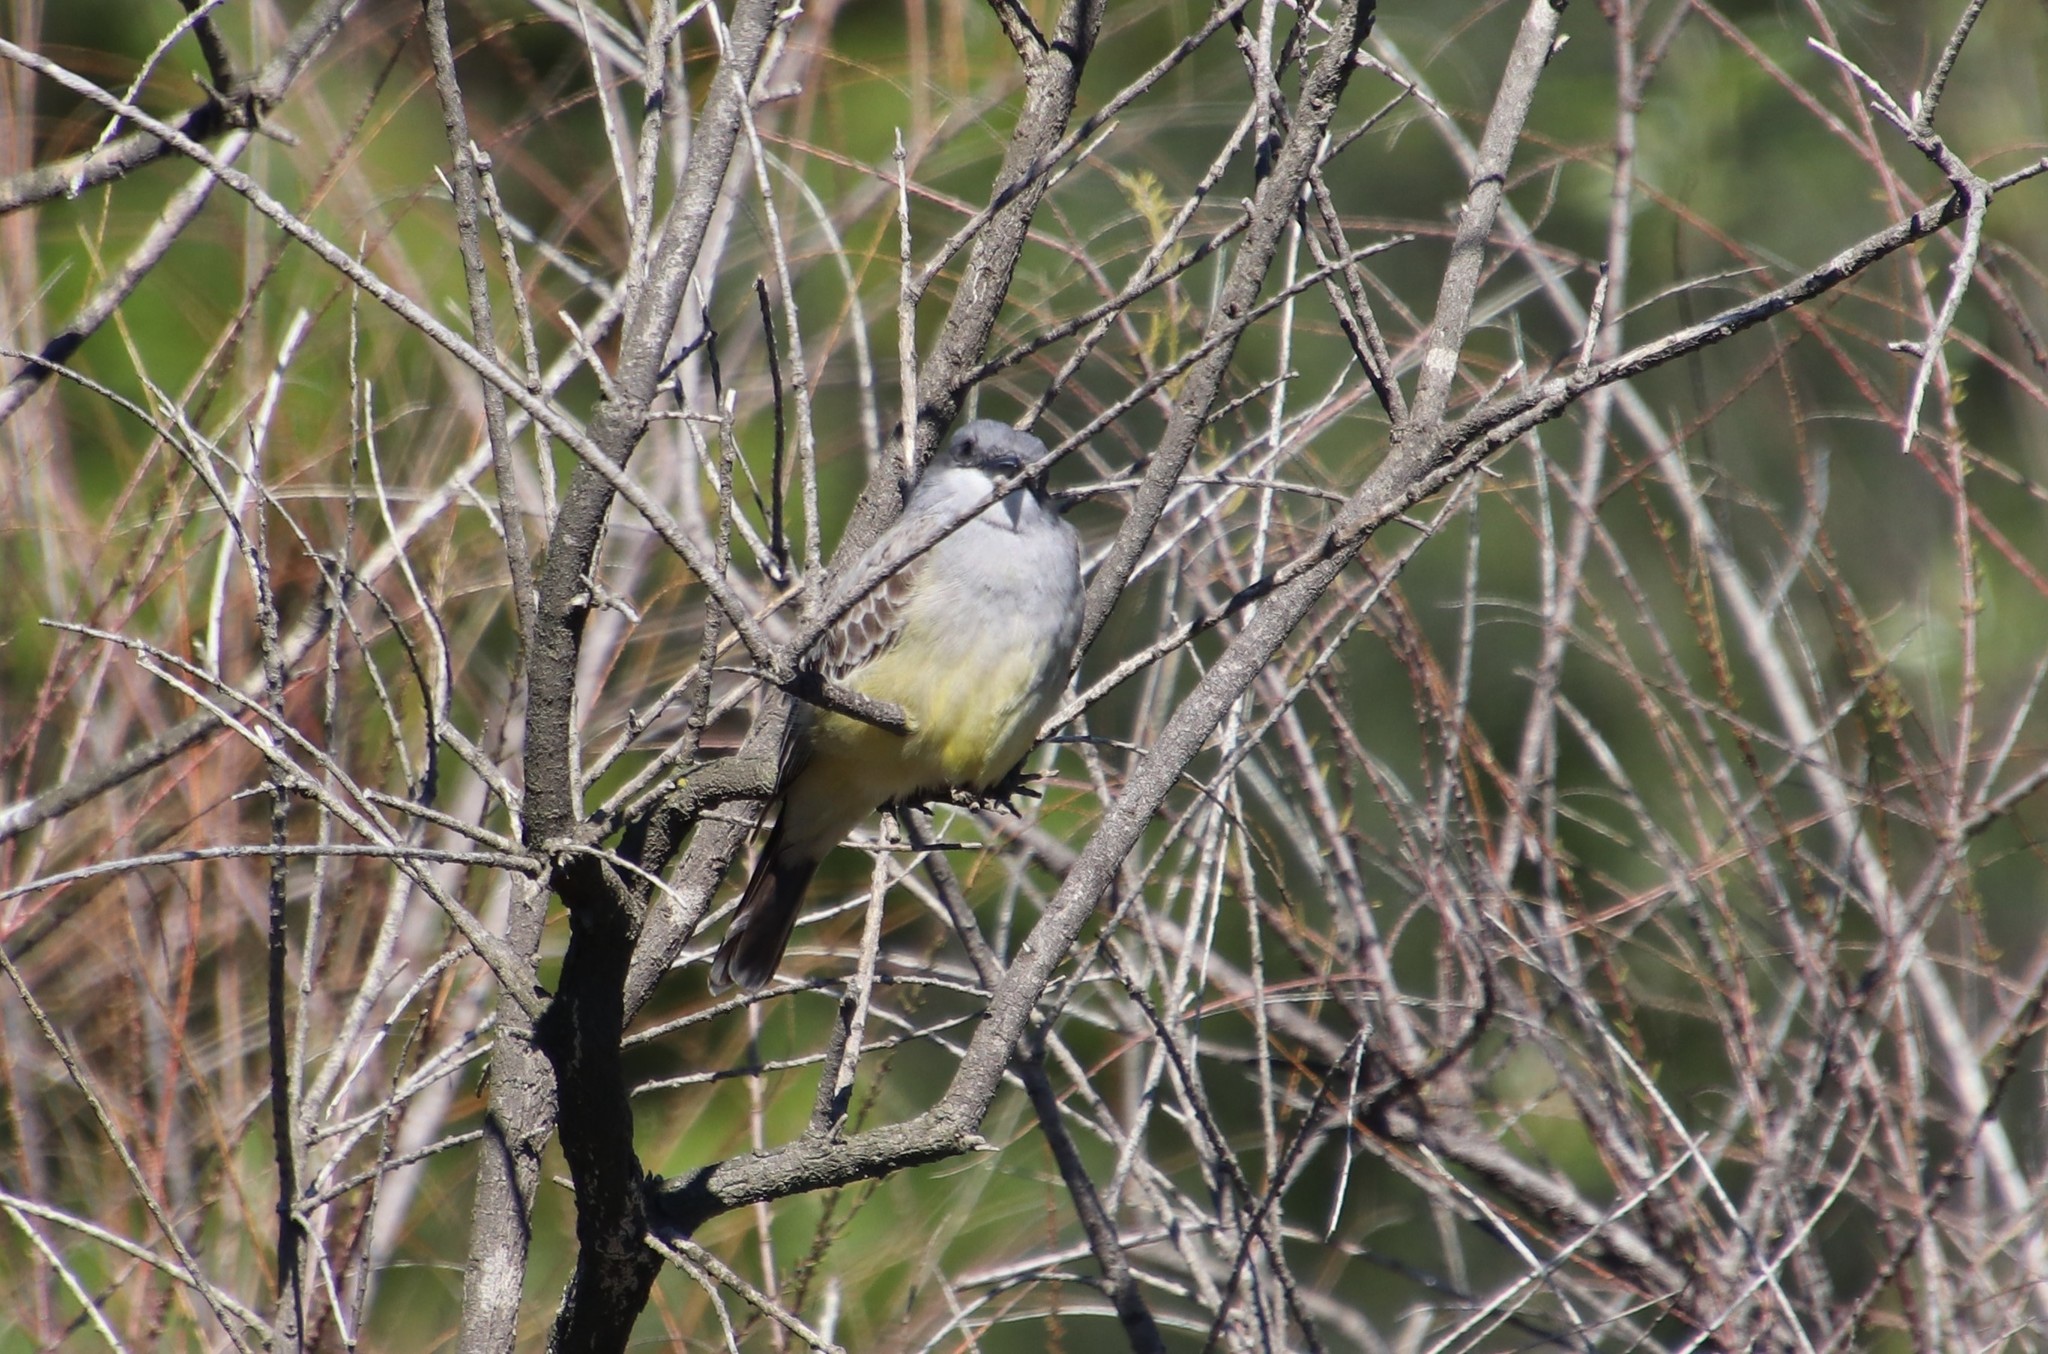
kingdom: Animalia
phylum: Chordata
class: Aves
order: Passeriformes
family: Tyrannidae
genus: Tyrannus
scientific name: Tyrannus vociferans
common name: Cassin's kingbird
